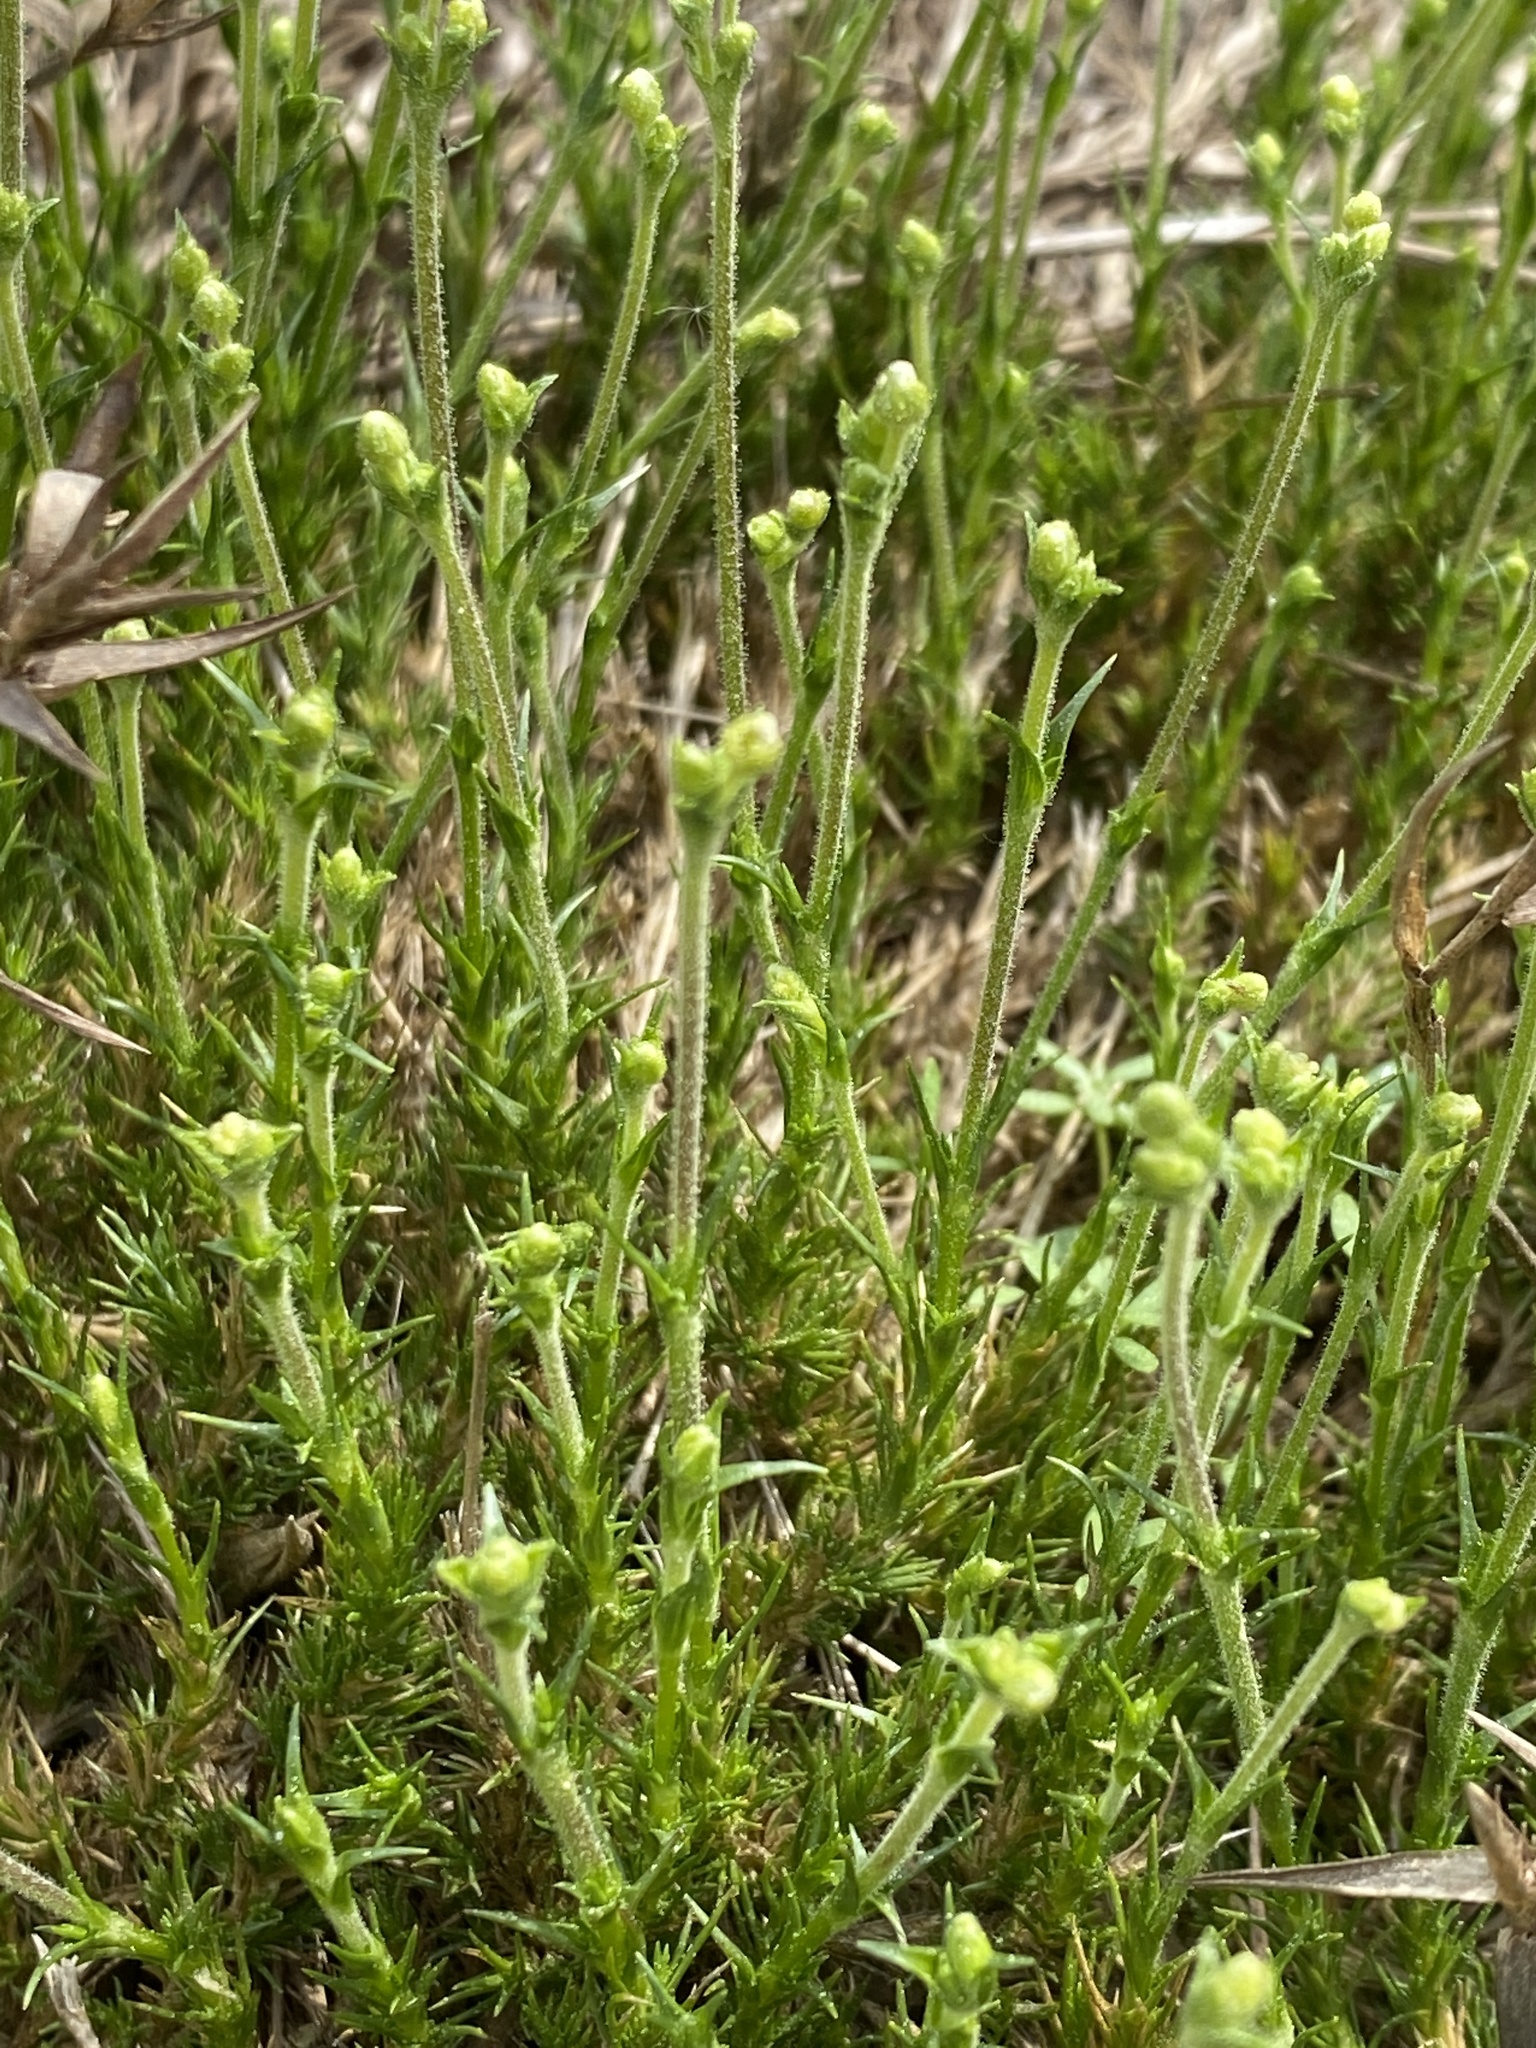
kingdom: Plantae
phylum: Tracheophyta
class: Magnoliopsida
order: Caryophyllales
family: Caryophyllaceae
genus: Geocarpon
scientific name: Geocarpon carolinianum
